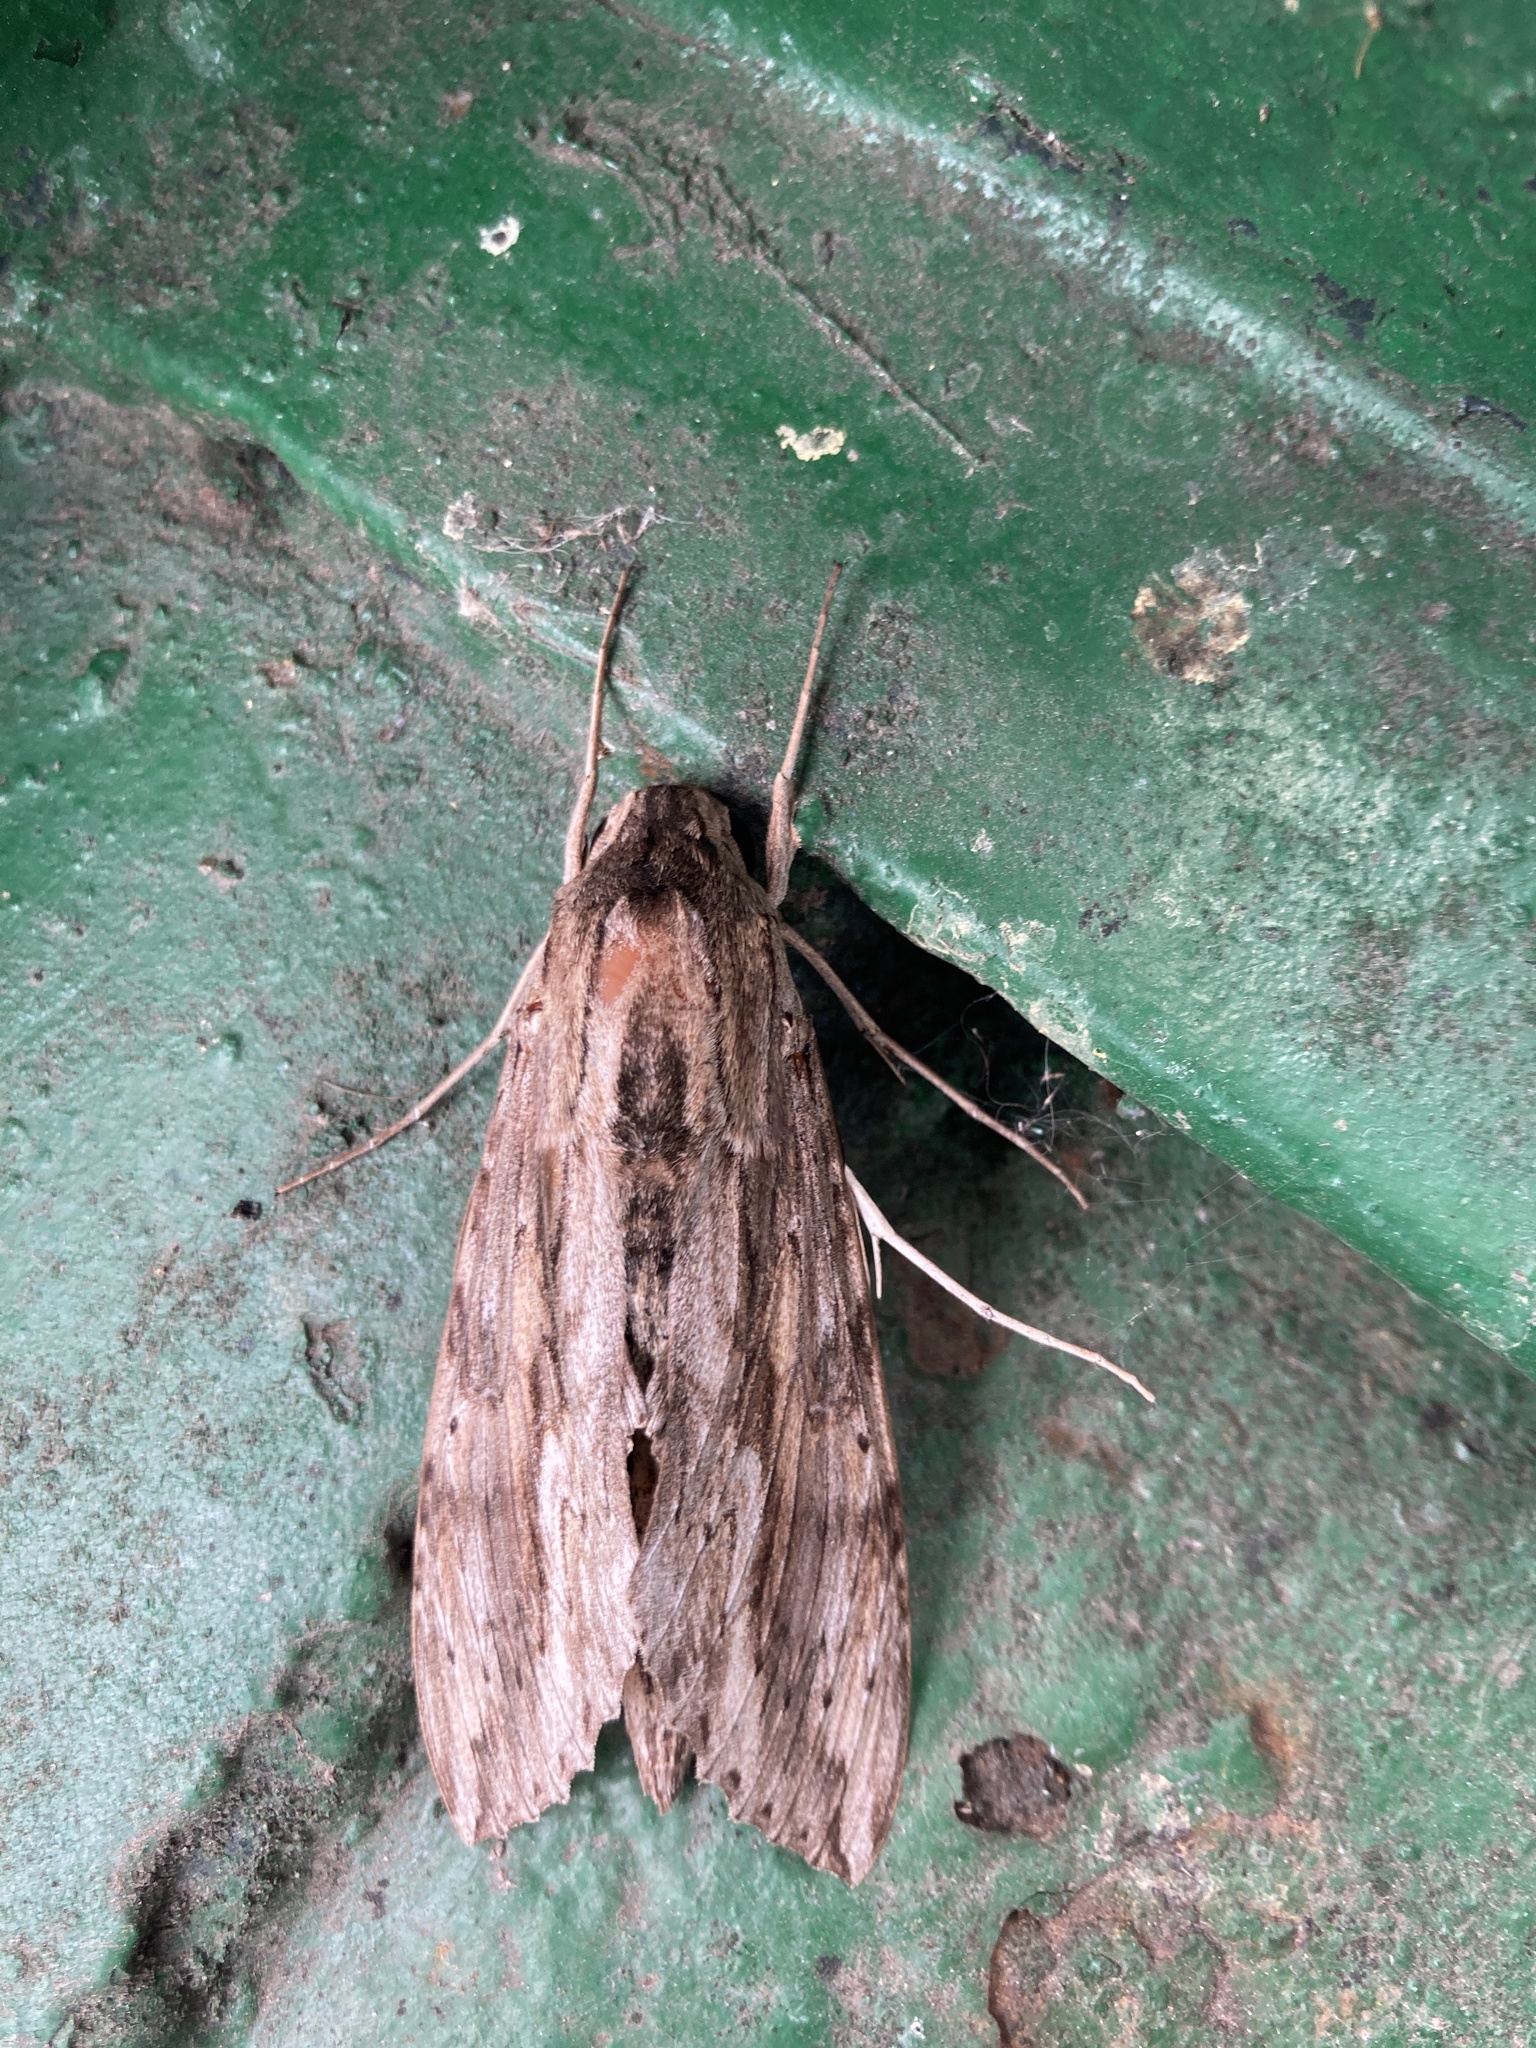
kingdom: Animalia
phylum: Arthropoda
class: Insecta
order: Lepidoptera
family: Sphingidae
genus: Erinnyis
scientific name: Erinnyis ello
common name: Ello sphinx
